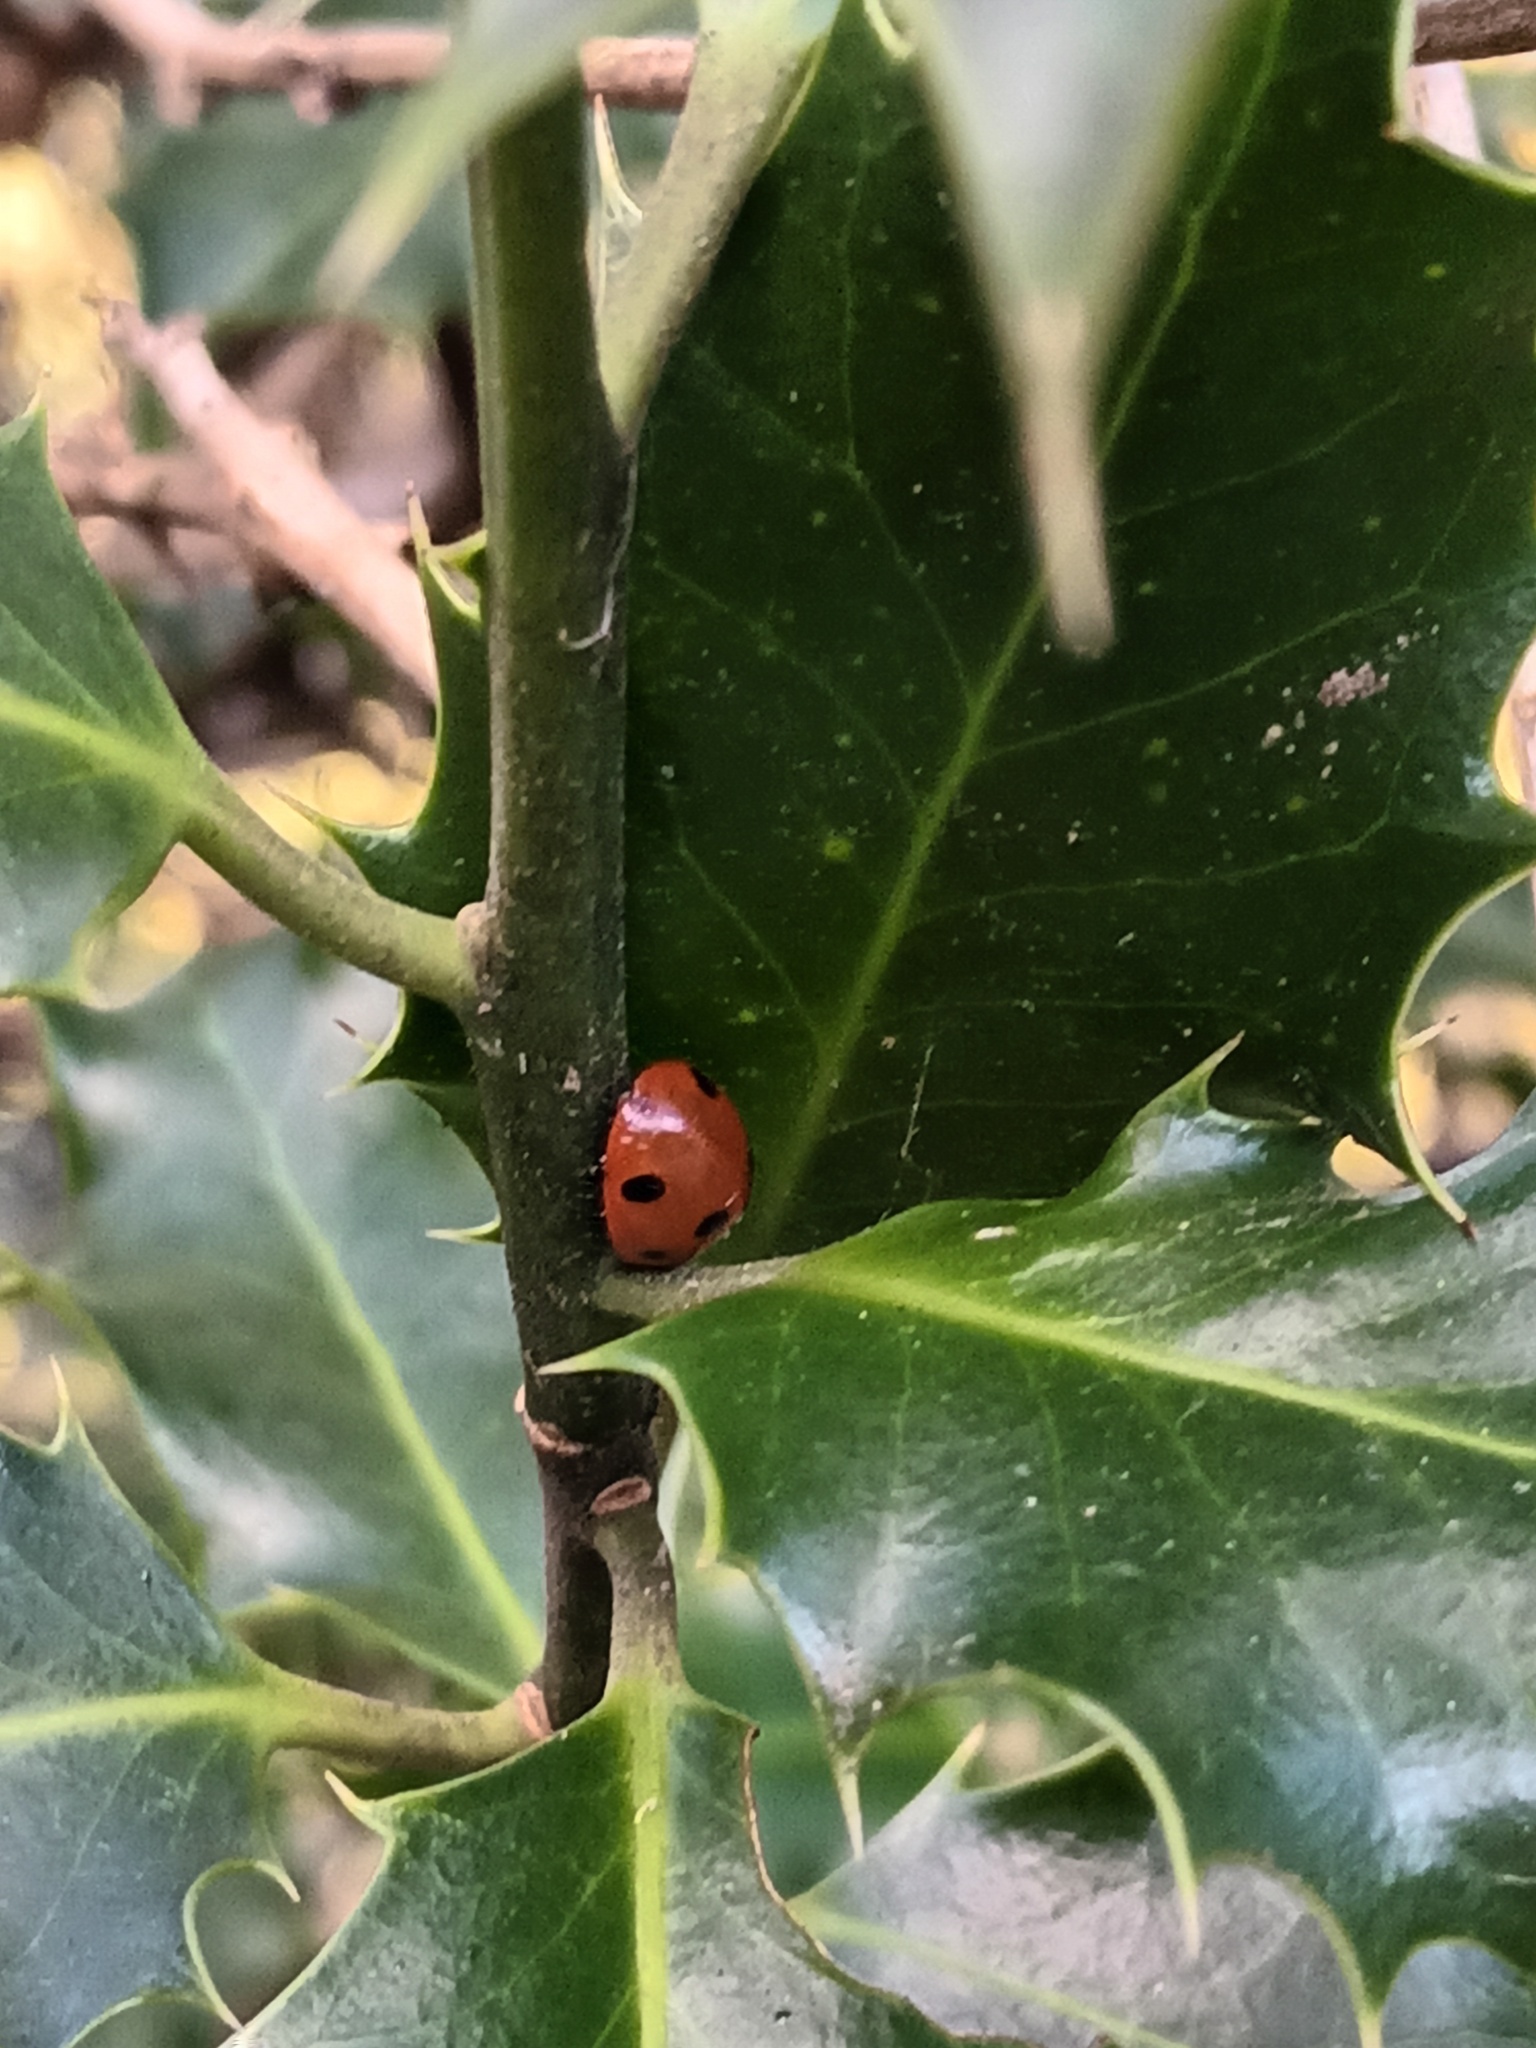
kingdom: Animalia
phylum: Arthropoda
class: Insecta
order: Coleoptera
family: Coccinellidae
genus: Coccinella
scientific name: Coccinella septempunctata
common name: Sevenspotted lady beetle
